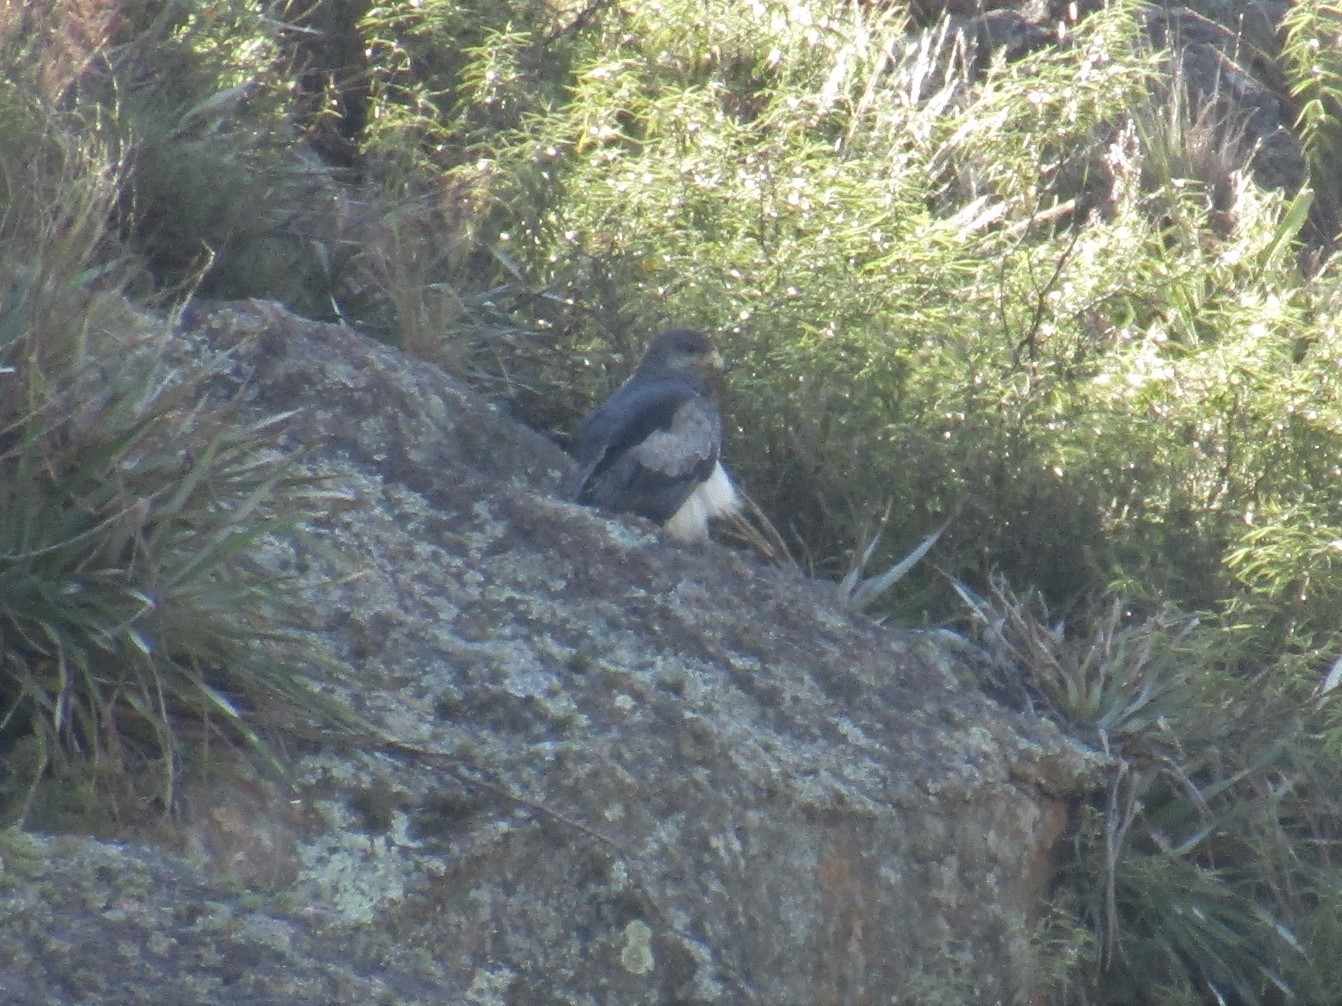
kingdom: Animalia
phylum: Chordata
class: Aves
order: Accipitriformes
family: Accipitridae
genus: Geranoaetus
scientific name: Geranoaetus melanoleucus
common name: Black-chested buzzard-eagle
